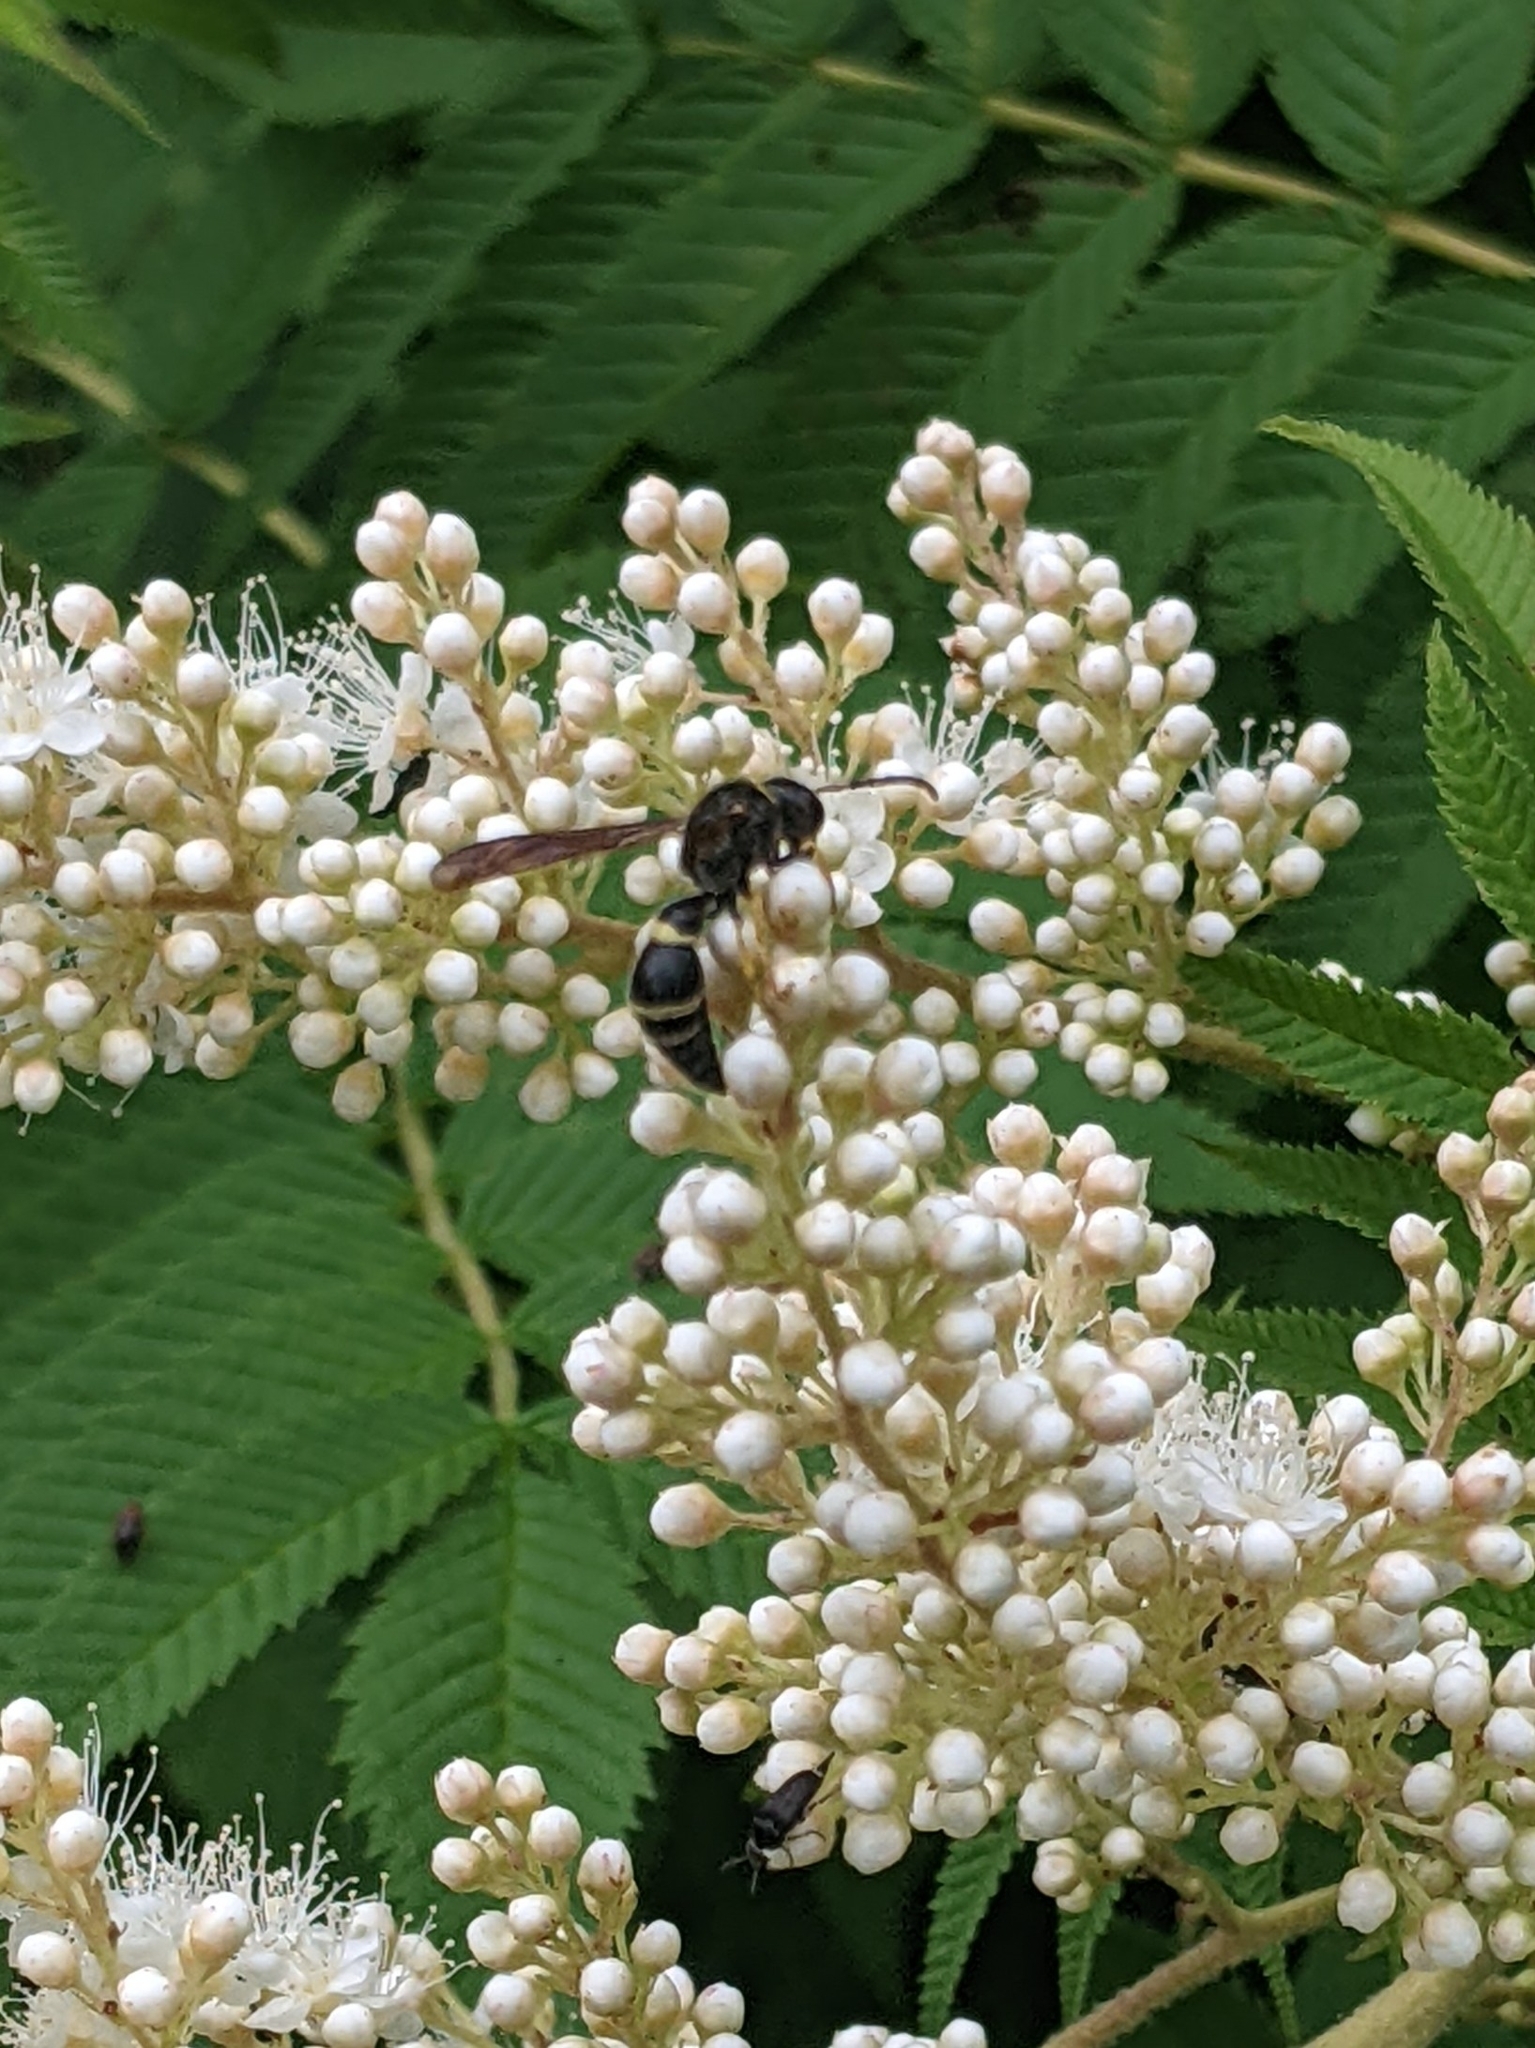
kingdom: Animalia
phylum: Arthropoda
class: Insecta
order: Hymenoptera
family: Eumenidae
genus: Parazumia
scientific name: Parazumia symmorpha
